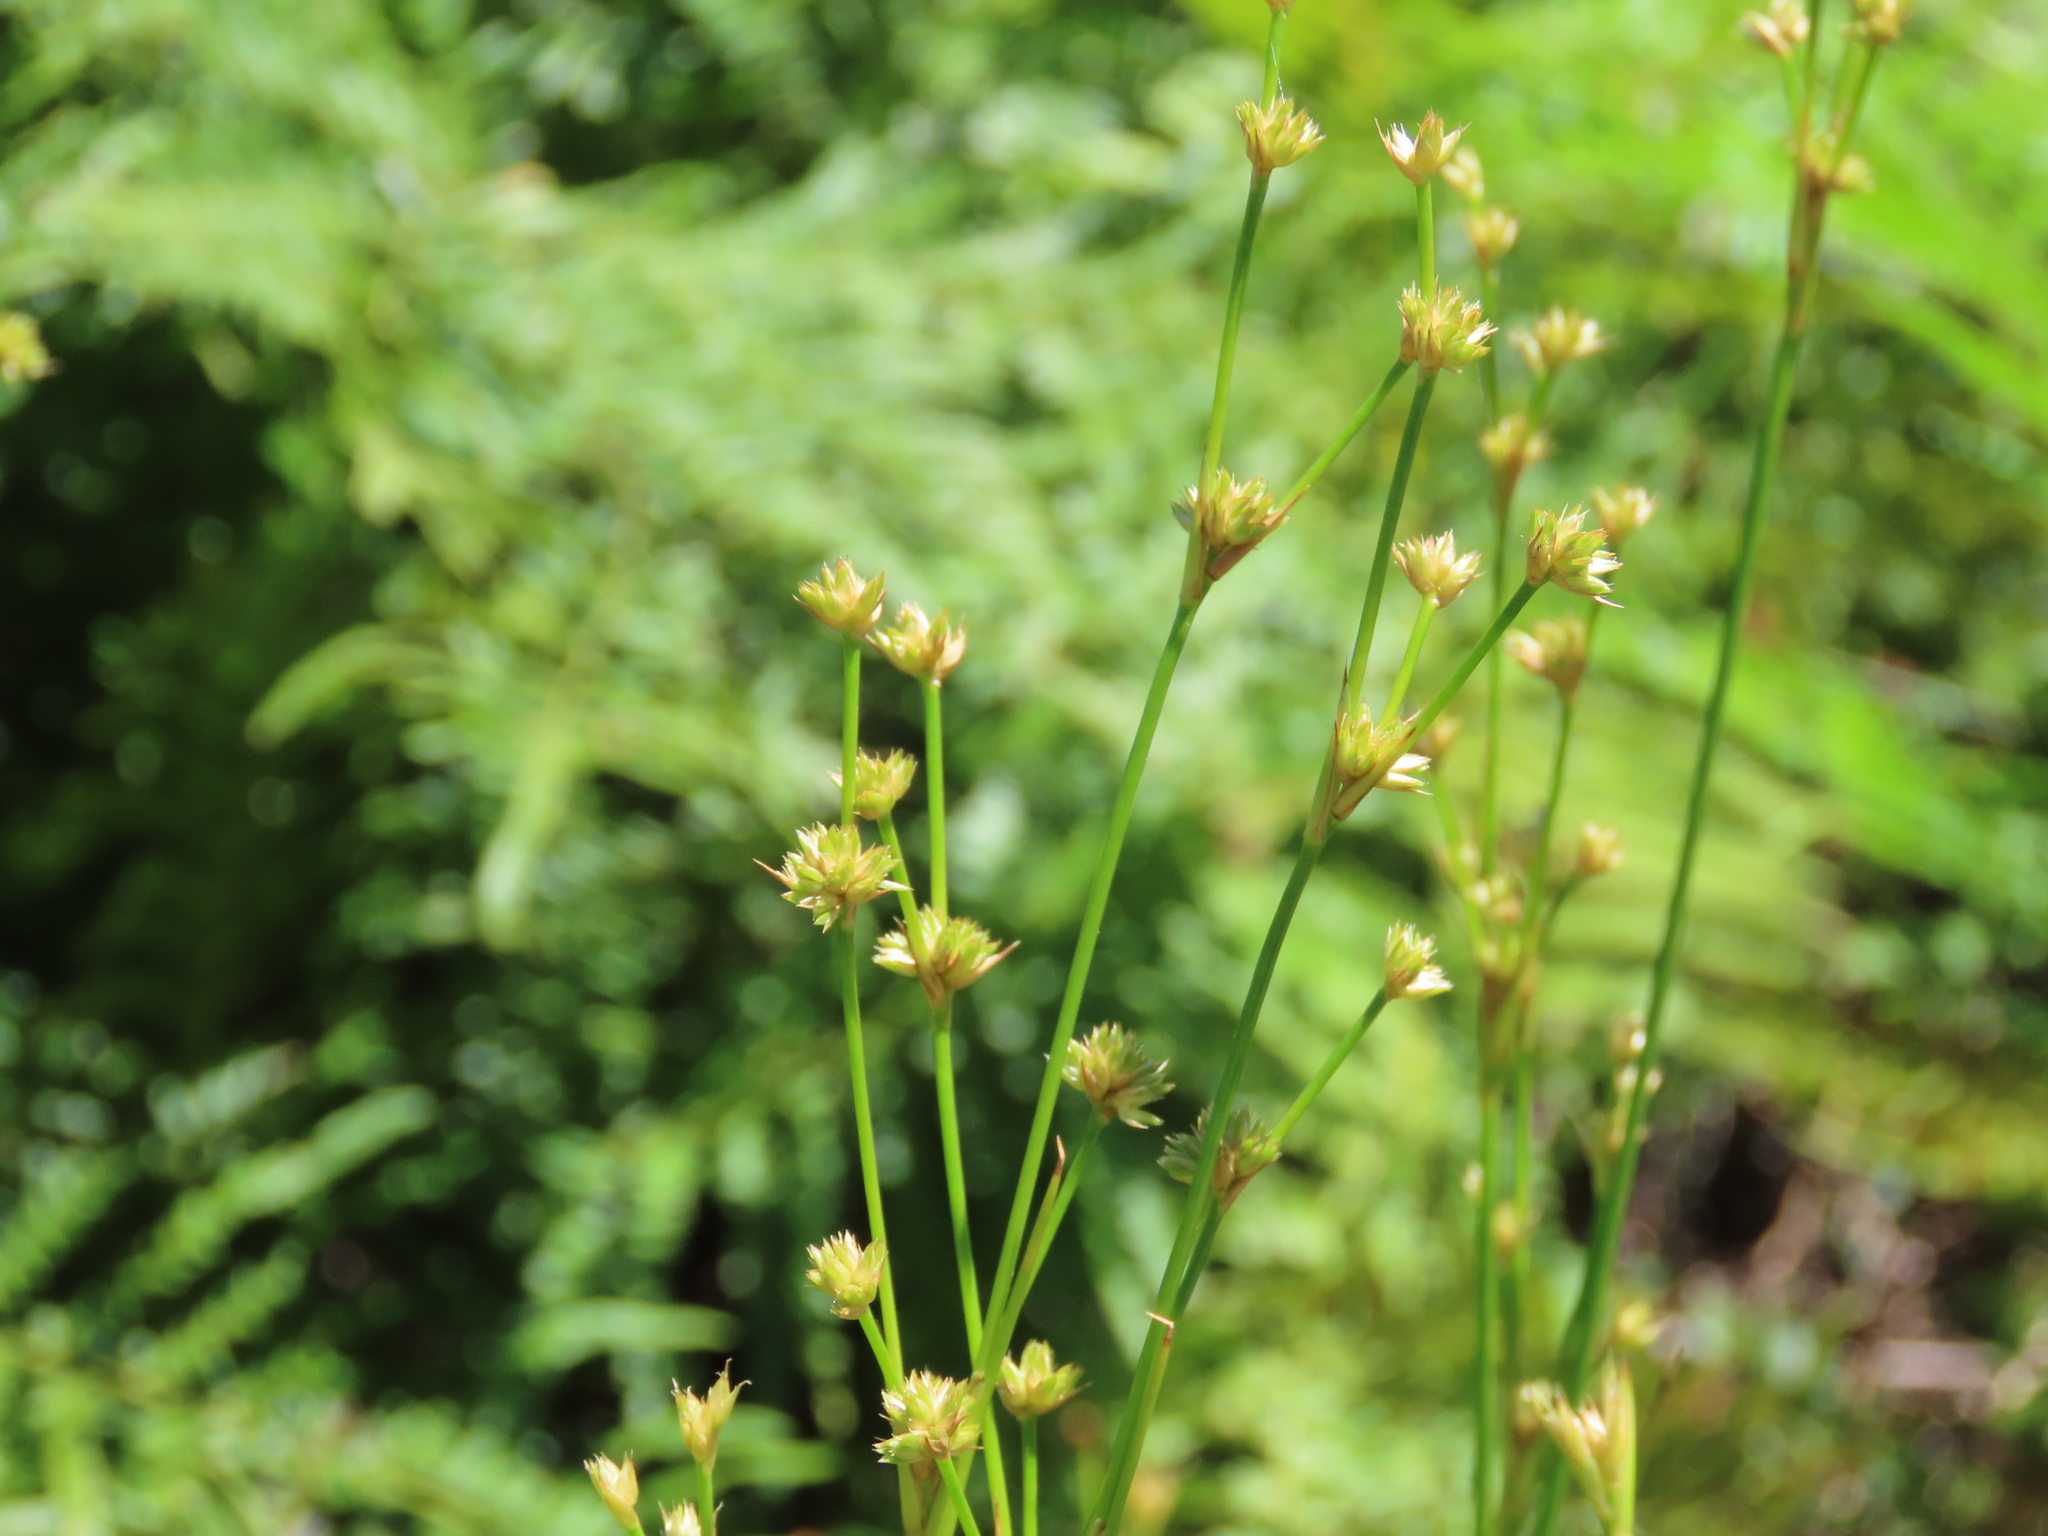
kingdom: Plantae
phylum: Tracheophyta
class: Liliopsida
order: Poales
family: Juncaceae
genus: Juncus
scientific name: Juncus scirpoides
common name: Needlepod rush
